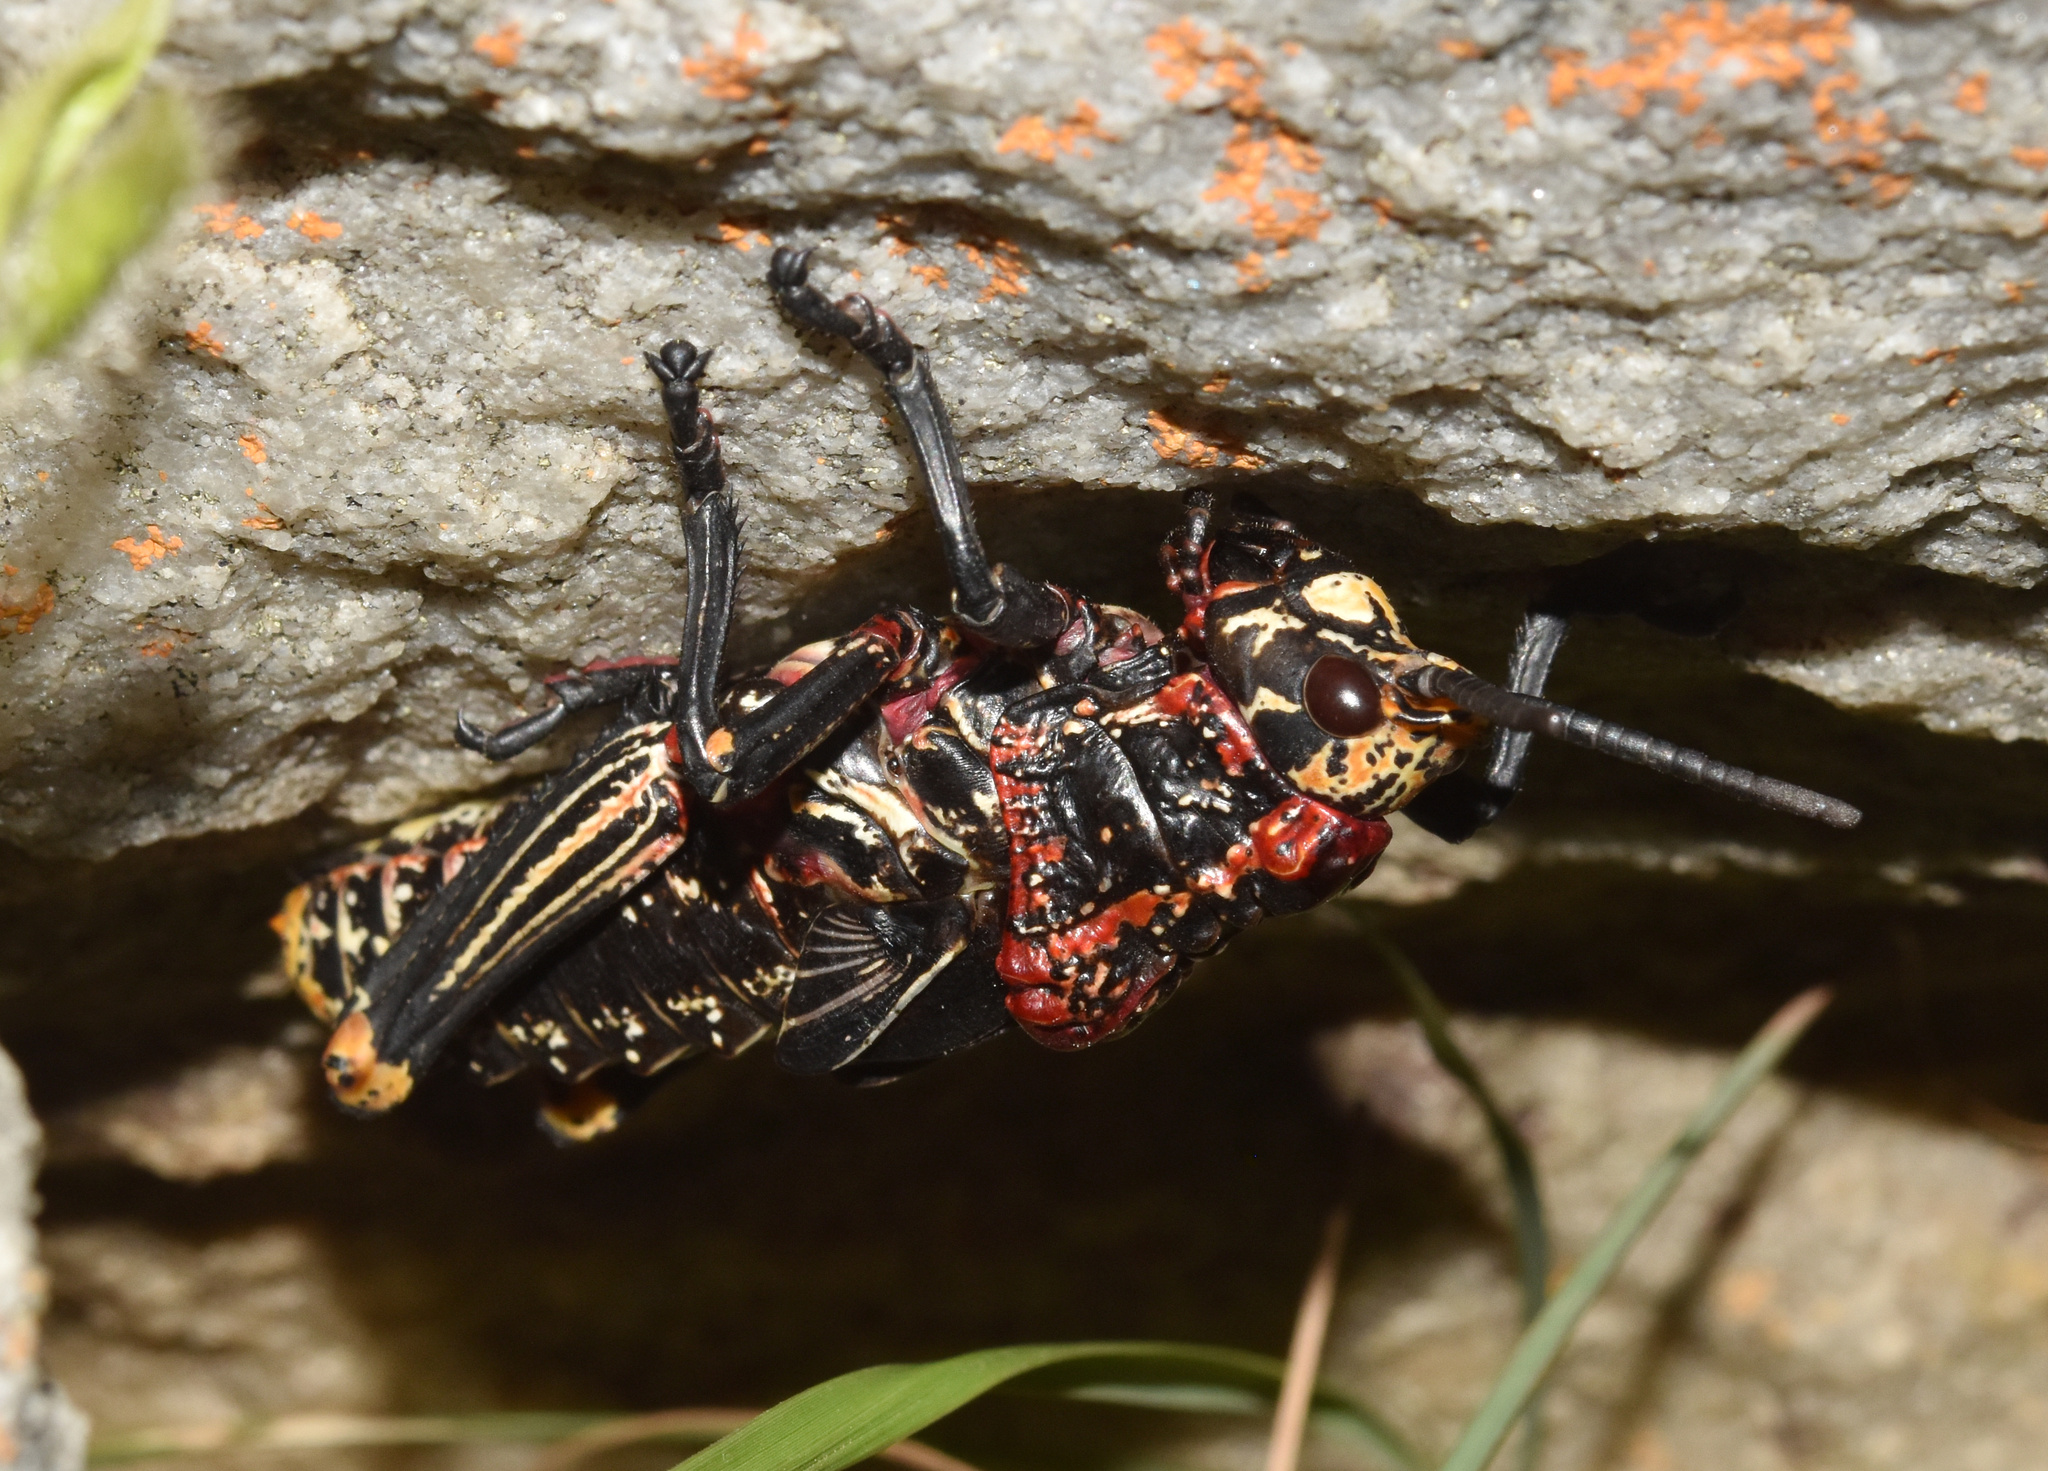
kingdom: Animalia
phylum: Arthropoda
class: Insecta
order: Orthoptera
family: Pyrgomorphidae
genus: Dictyophorus
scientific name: Dictyophorus spumans
